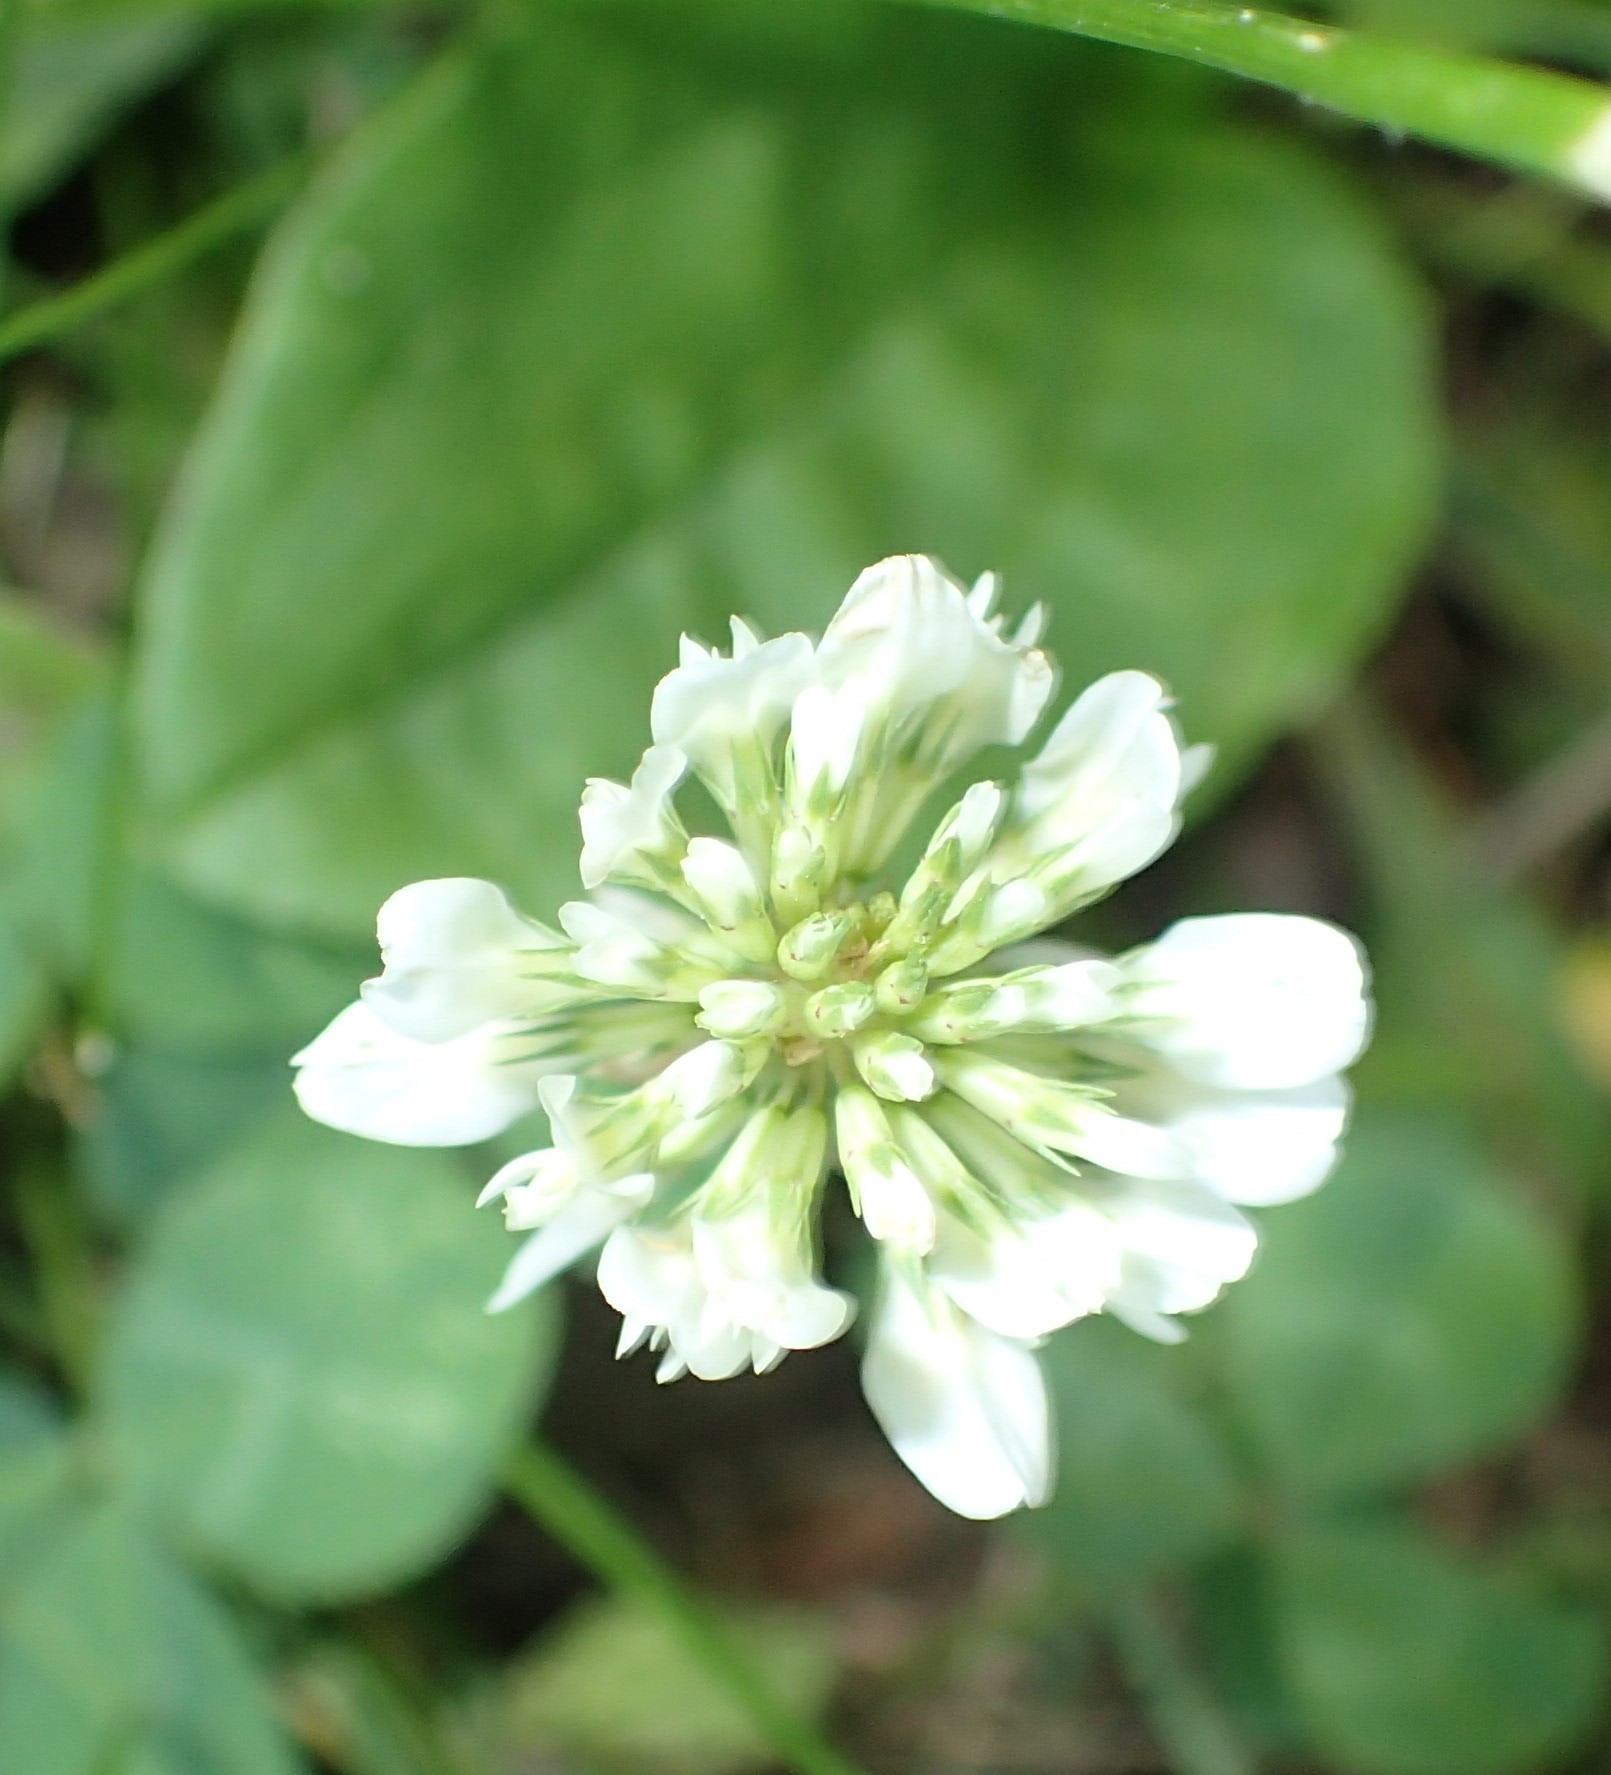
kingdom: Plantae
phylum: Tracheophyta
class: Magnoliopsida
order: Fabales
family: Fabaceae
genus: Trifolium
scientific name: Trifolium repens
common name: White clover
